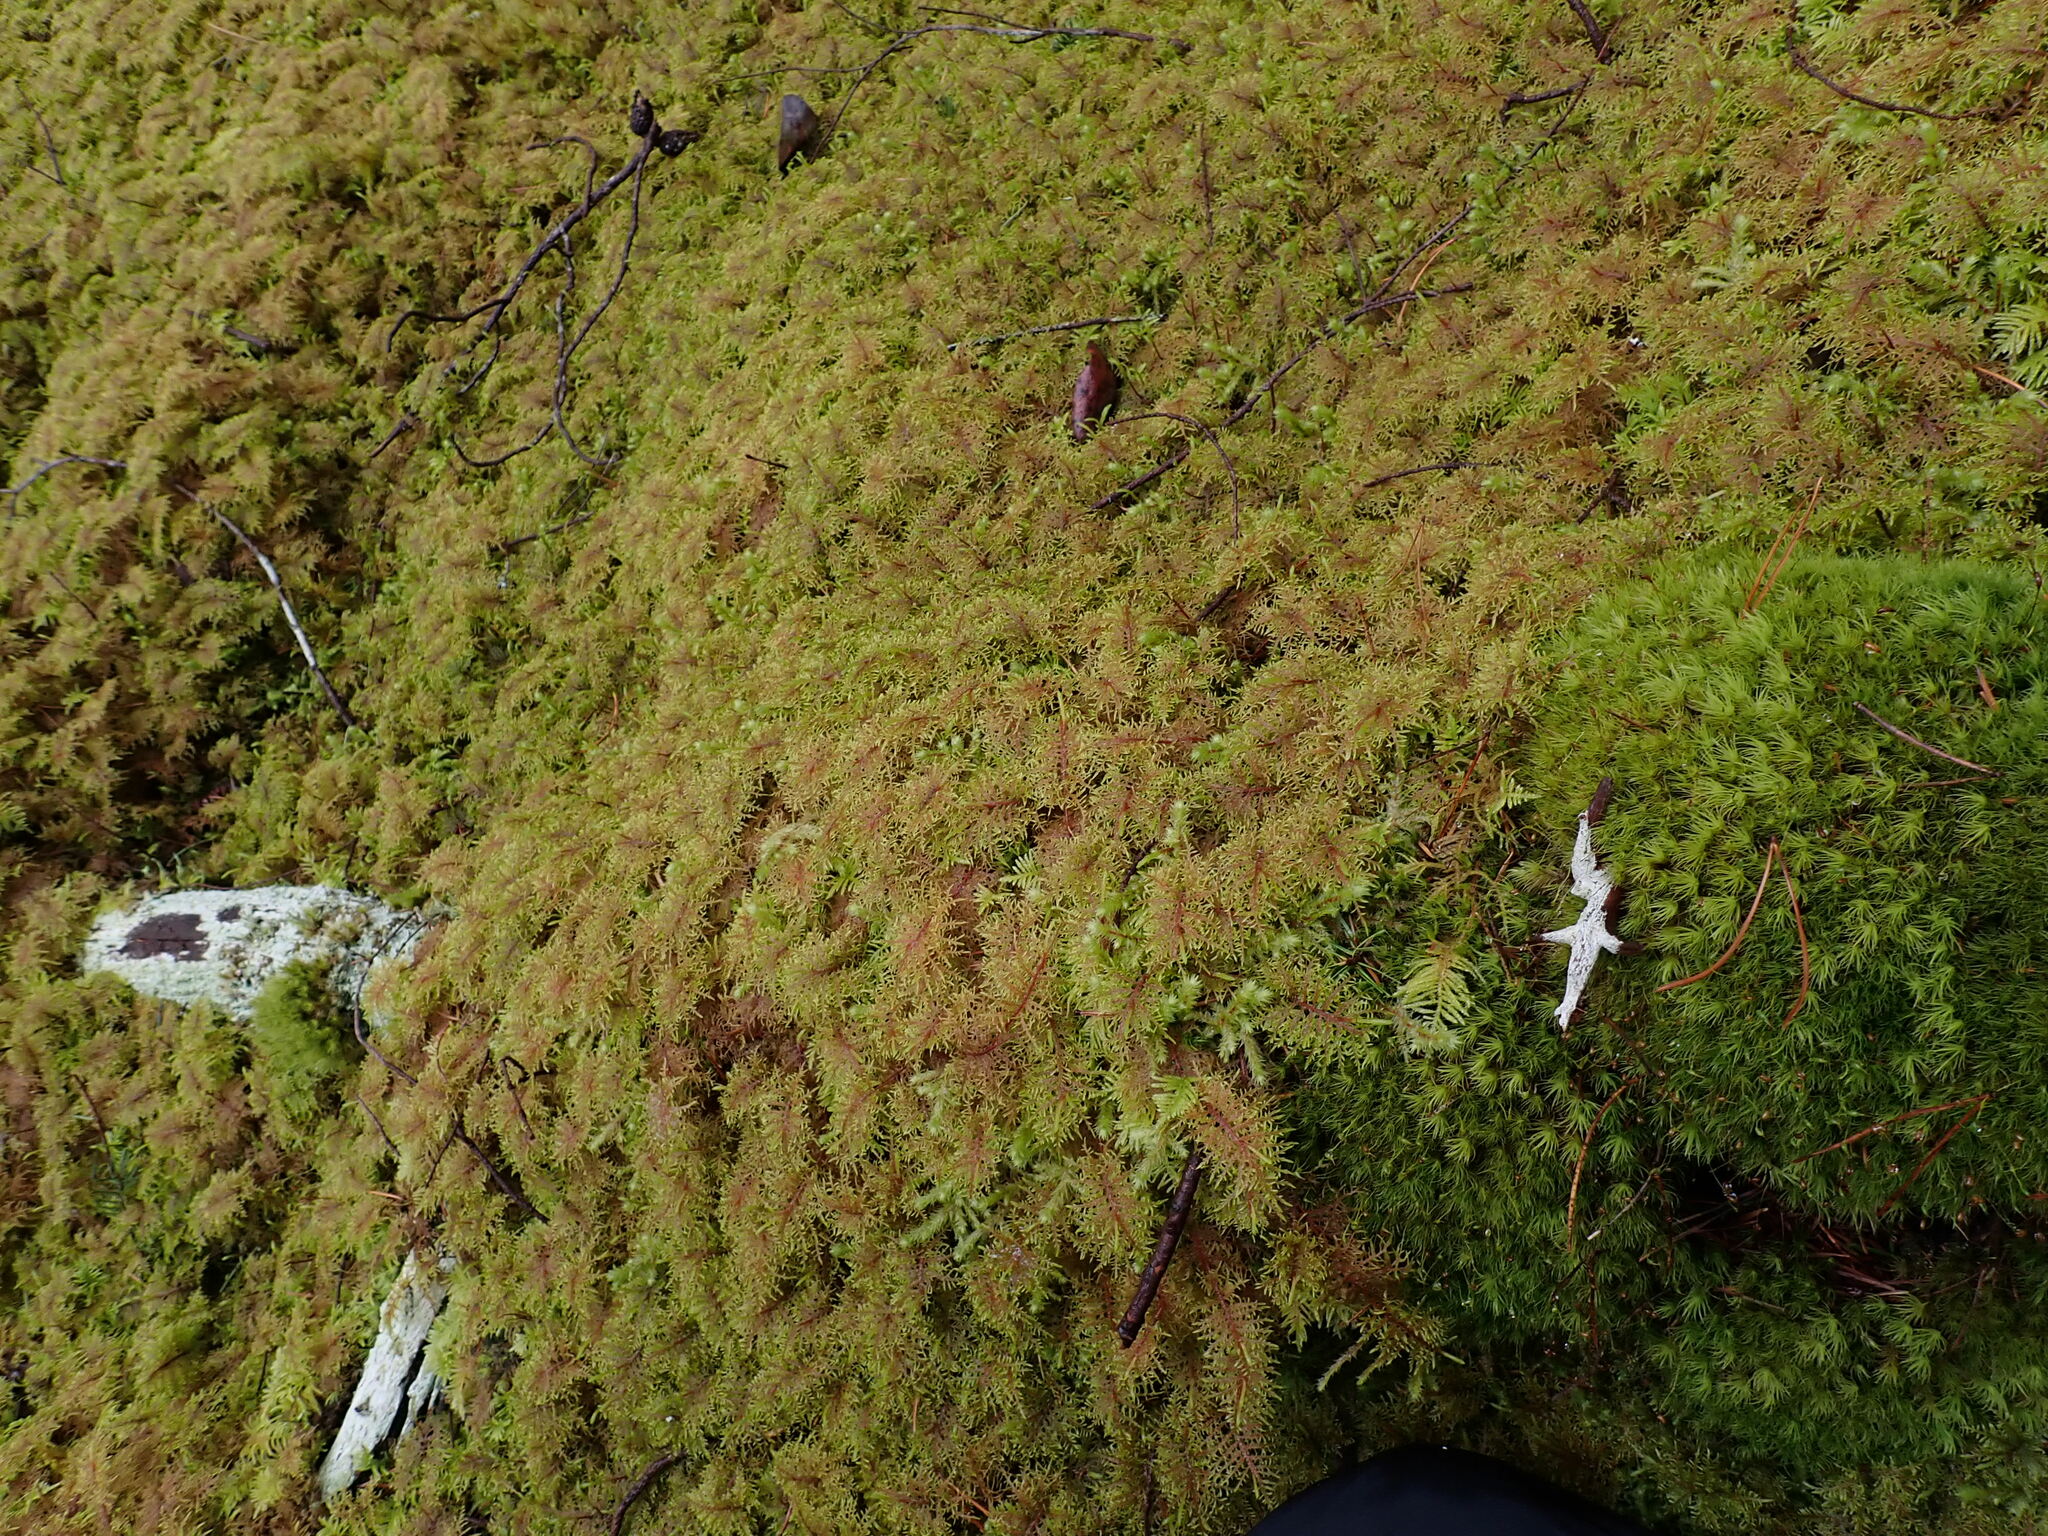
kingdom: Plantae
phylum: Bryophyta
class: Bryopsida
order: Hypnales
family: Hylocomiaceae
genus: Hylocomium
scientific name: Hylocomium splendens
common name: Stairstep moss
